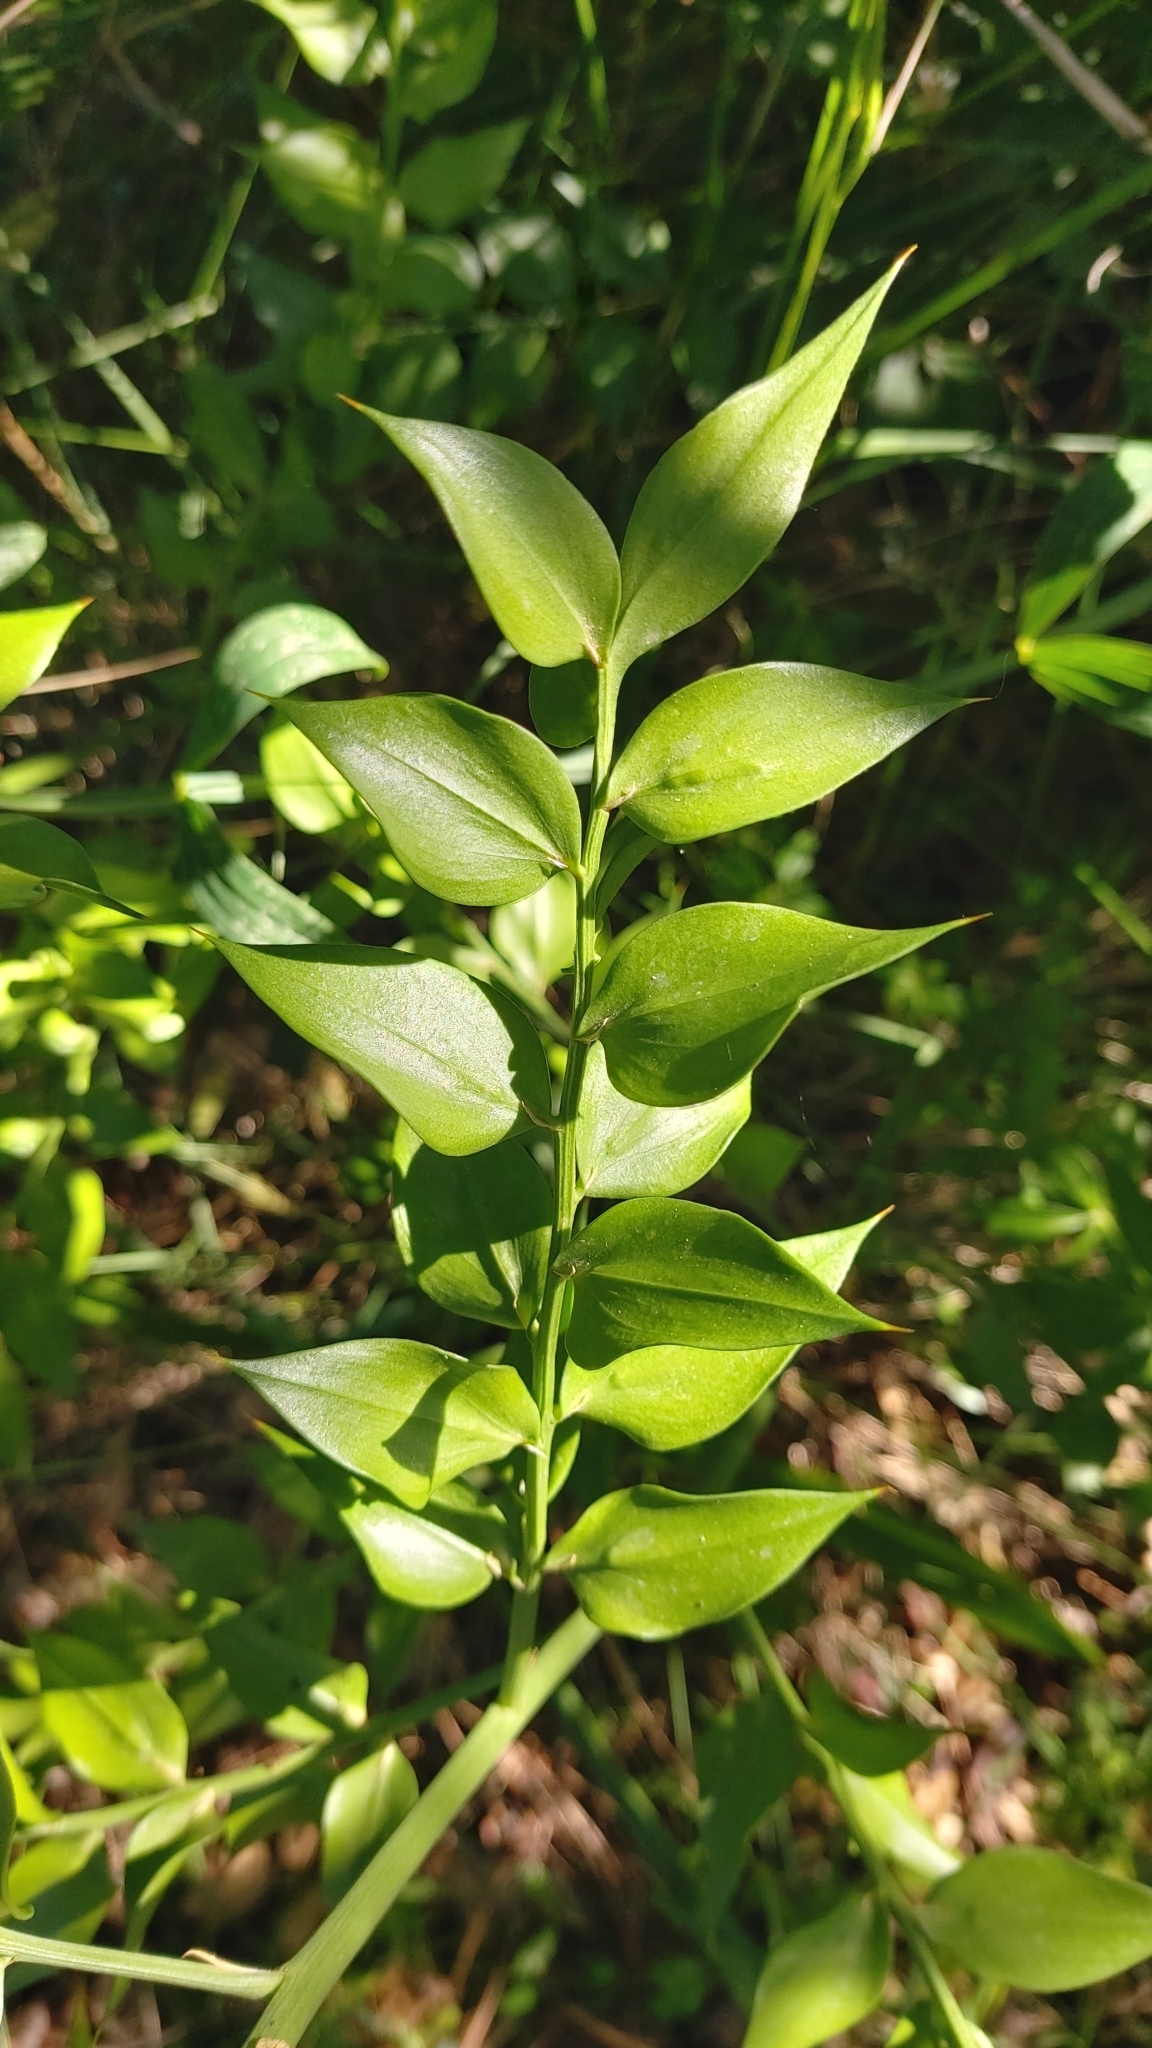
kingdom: Plantae
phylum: Tracheophyta
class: Liliopsida
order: Asparagales
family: Asparagaceae
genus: Ruscus
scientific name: Ruscus aculeatus
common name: Butcher's-broom
